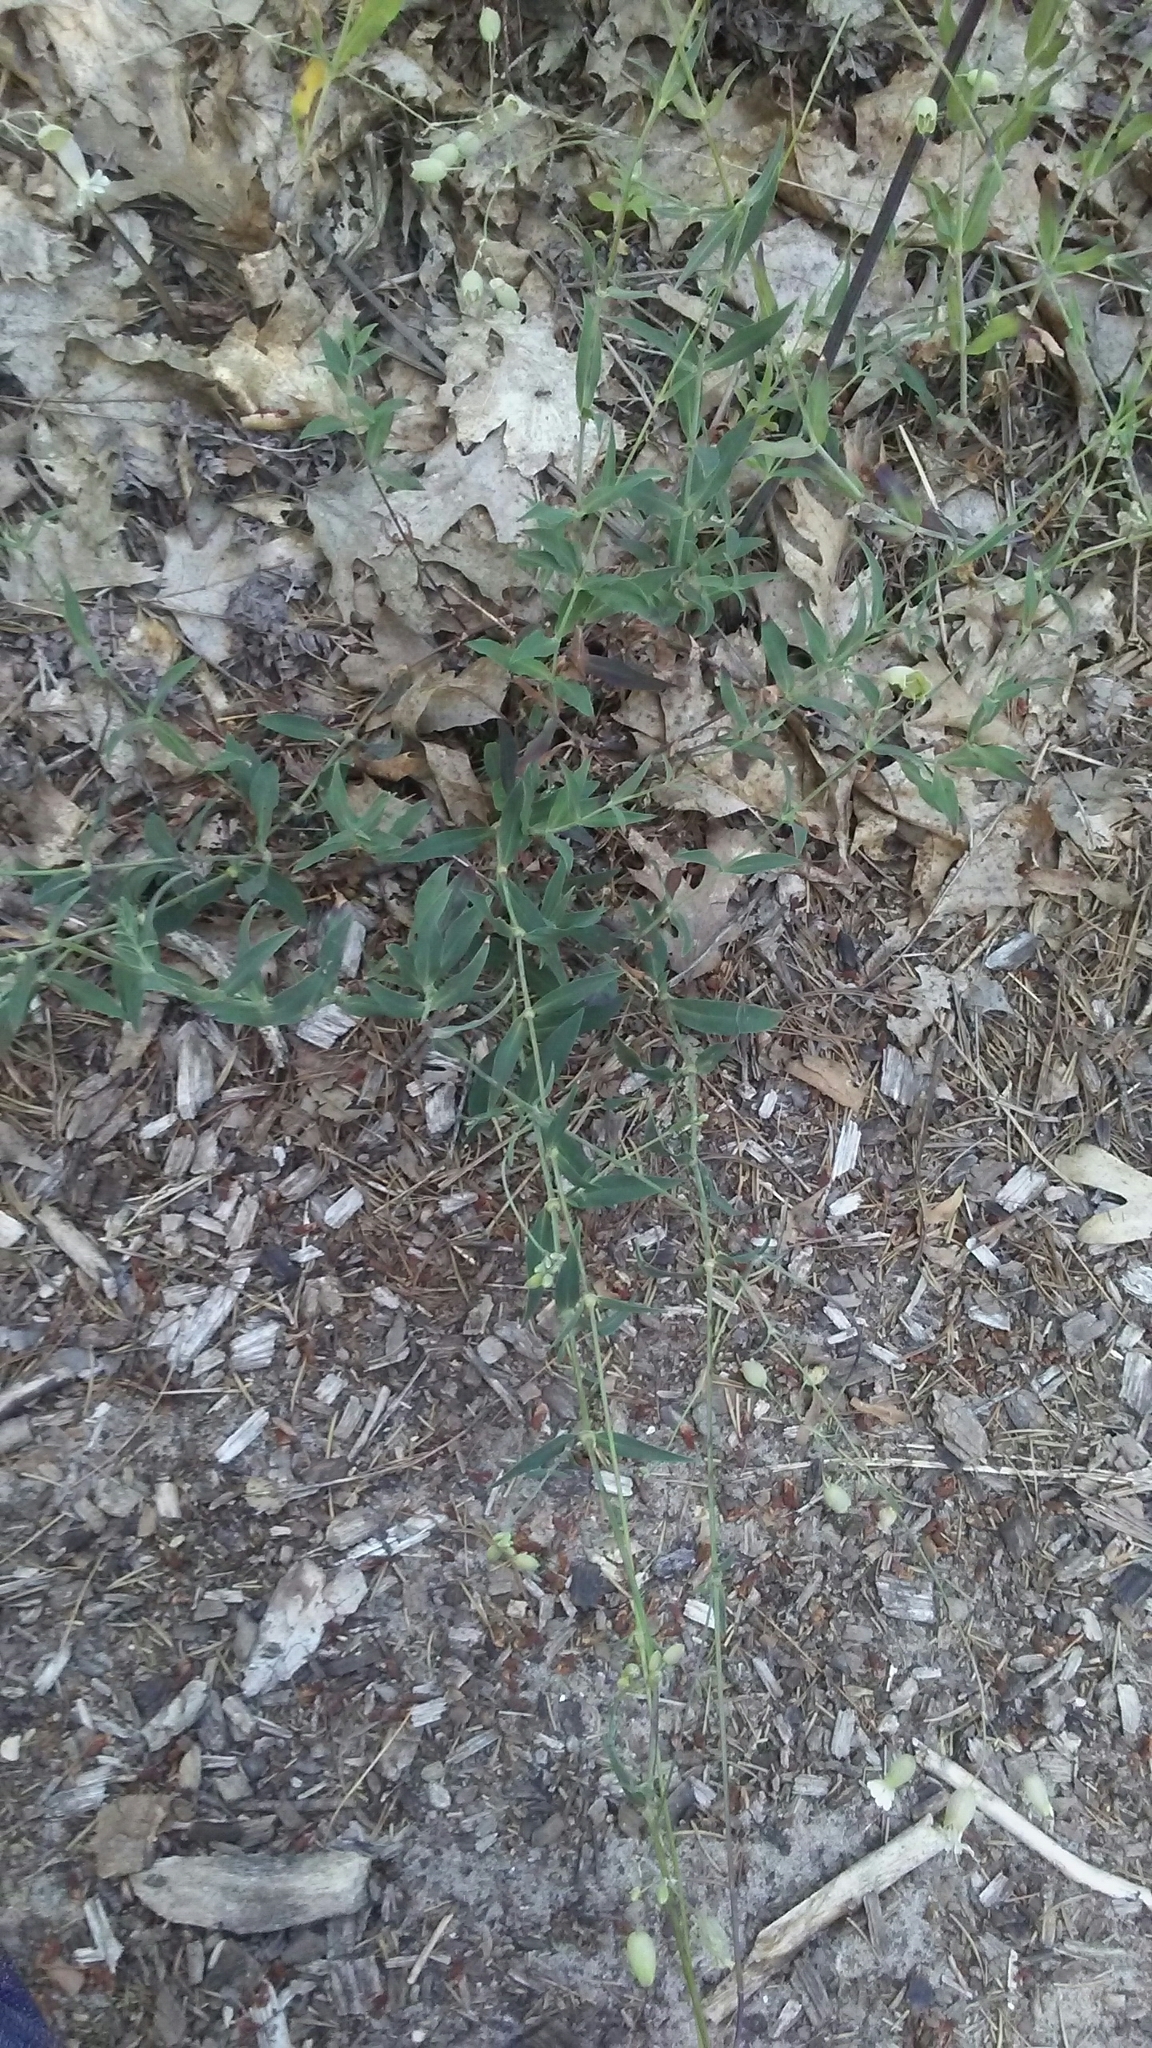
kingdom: Plantae
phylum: Tracheophyta
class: Magnoliopsida
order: Caryophyllales
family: Caryophyllaceae
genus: Silene
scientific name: Silene vulgaris
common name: Bladder campion
